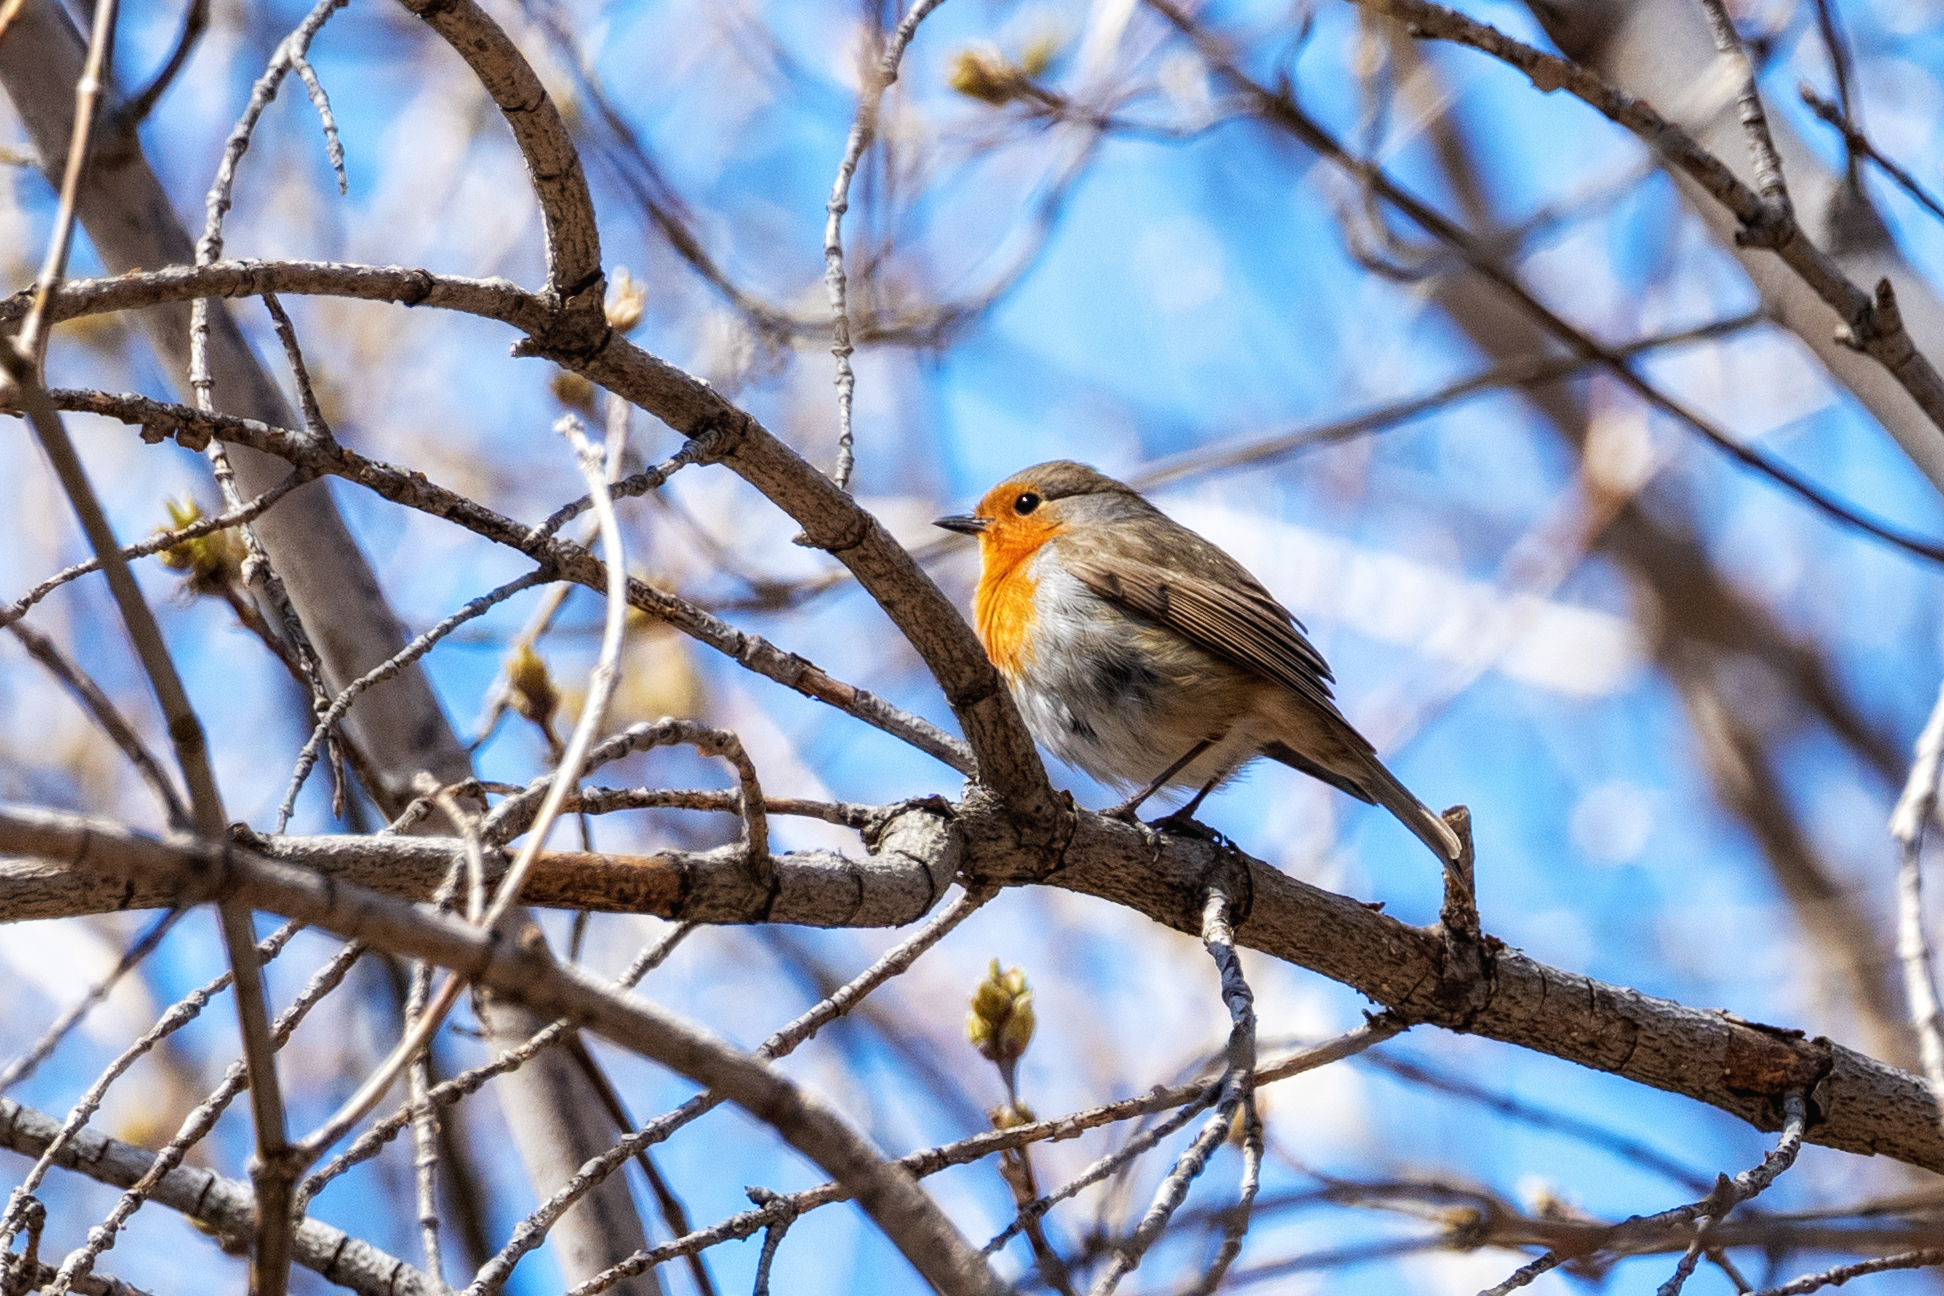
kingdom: Animalia
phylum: Chordata
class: Aves
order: Passeriformes
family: Muscicapidae
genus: Erithacus
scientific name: Erithacus rubecula
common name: European robin
